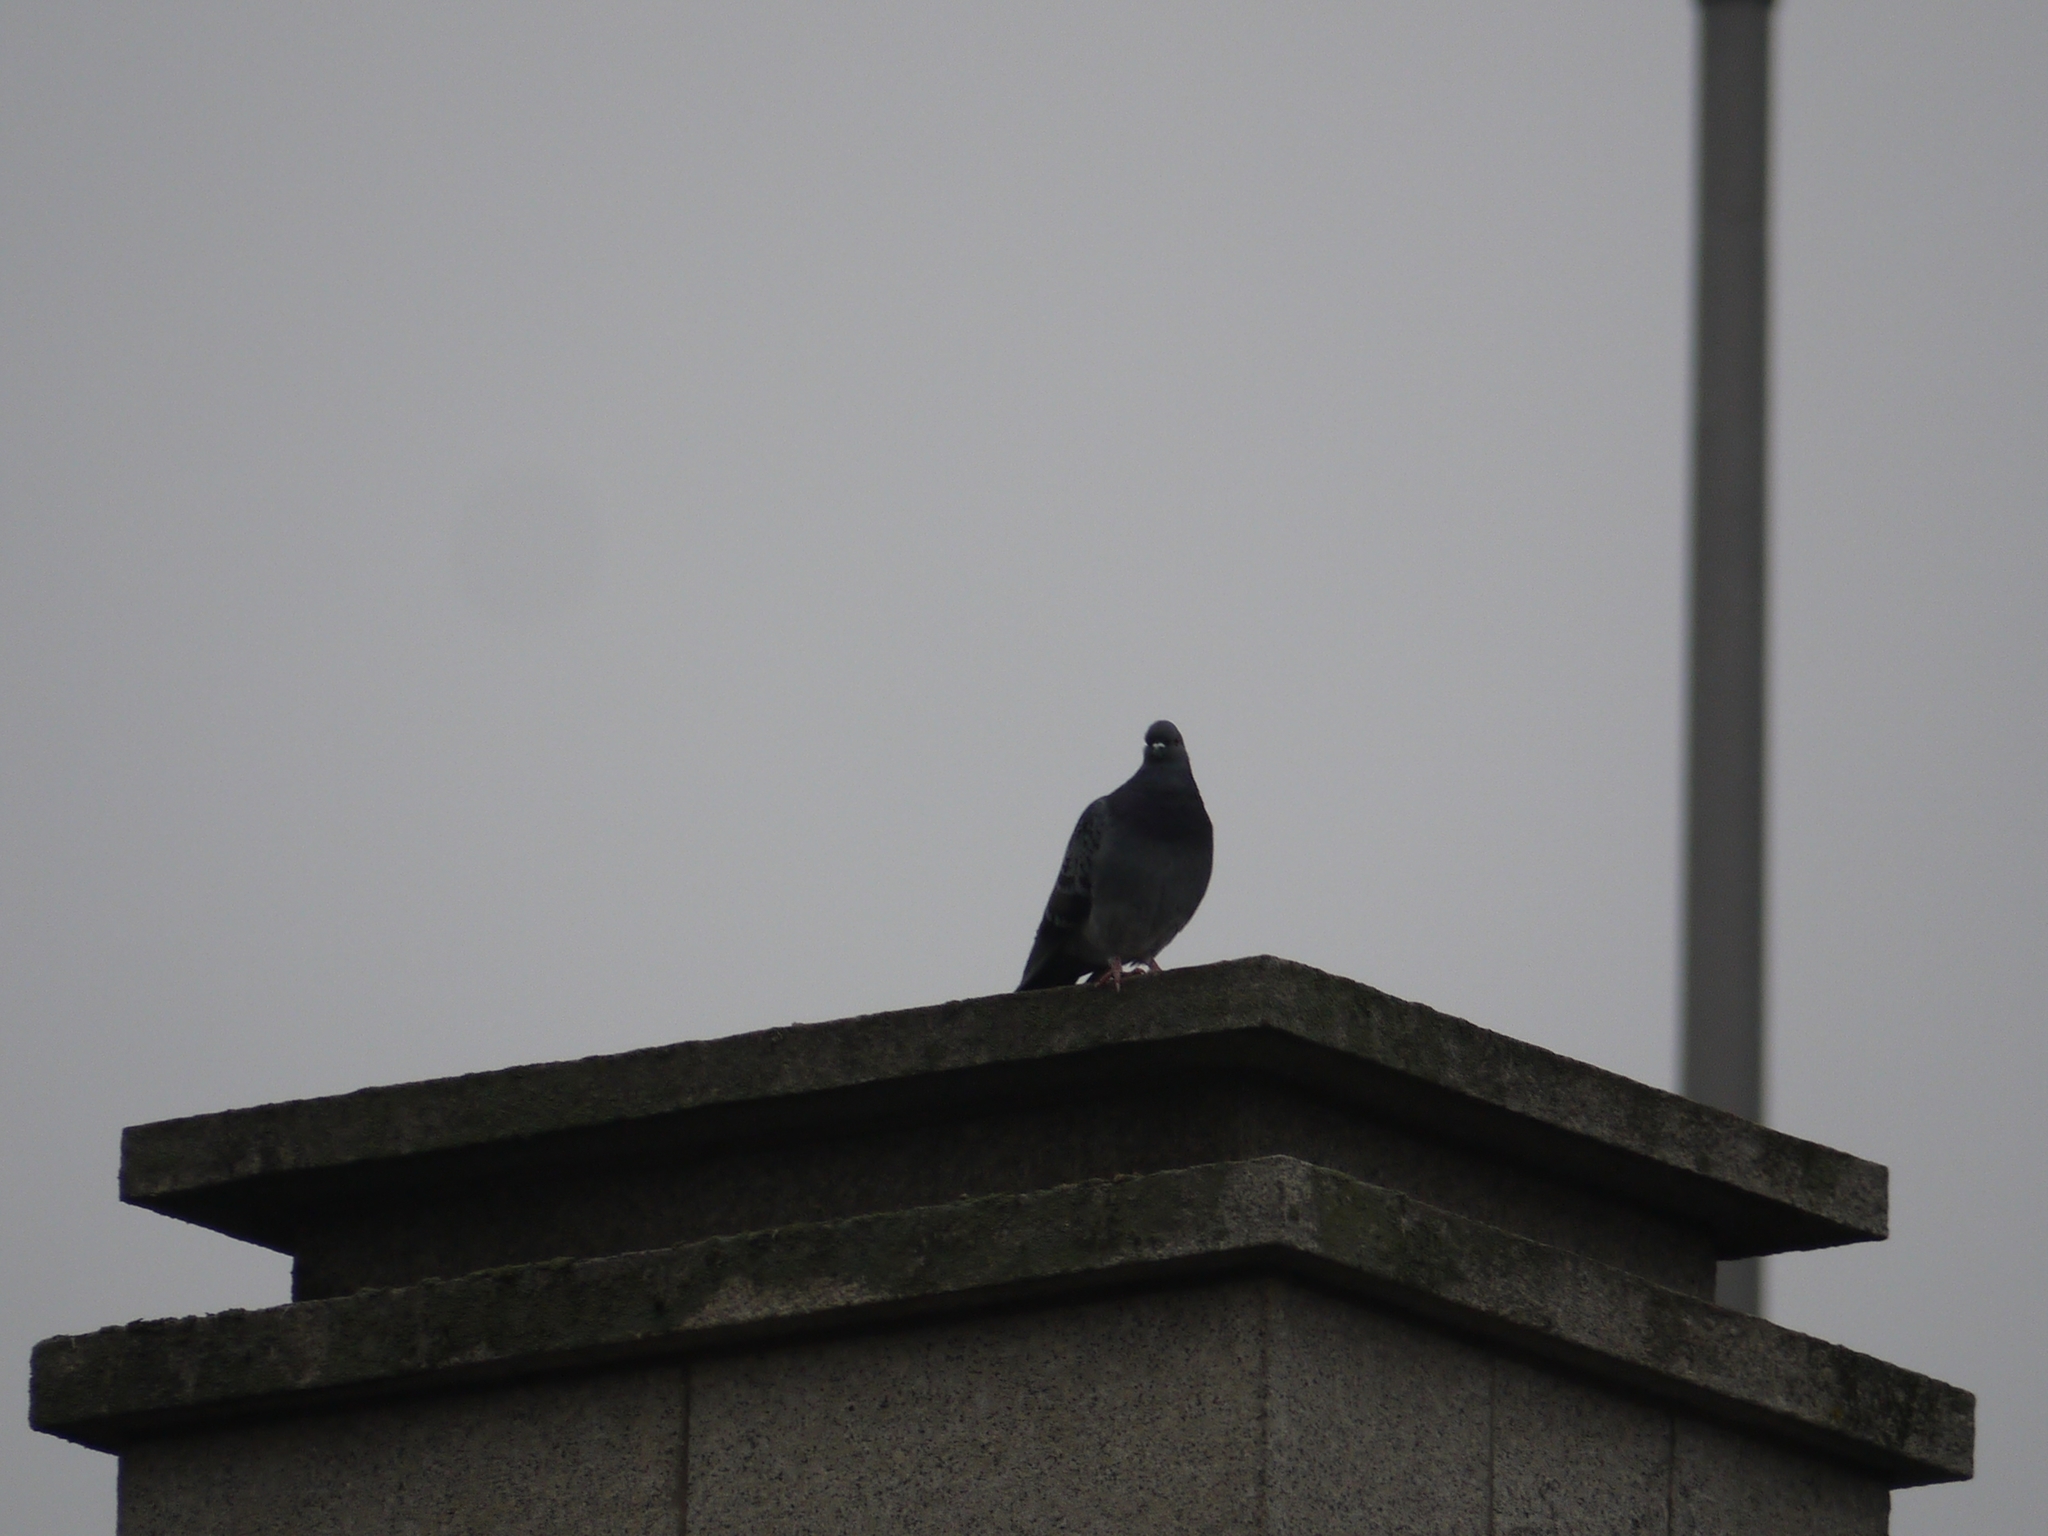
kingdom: Animalia
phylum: Chordata
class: Aves
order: Columbiformes
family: Columbidae
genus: Columba
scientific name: Columba livia
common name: Rock pigeon
